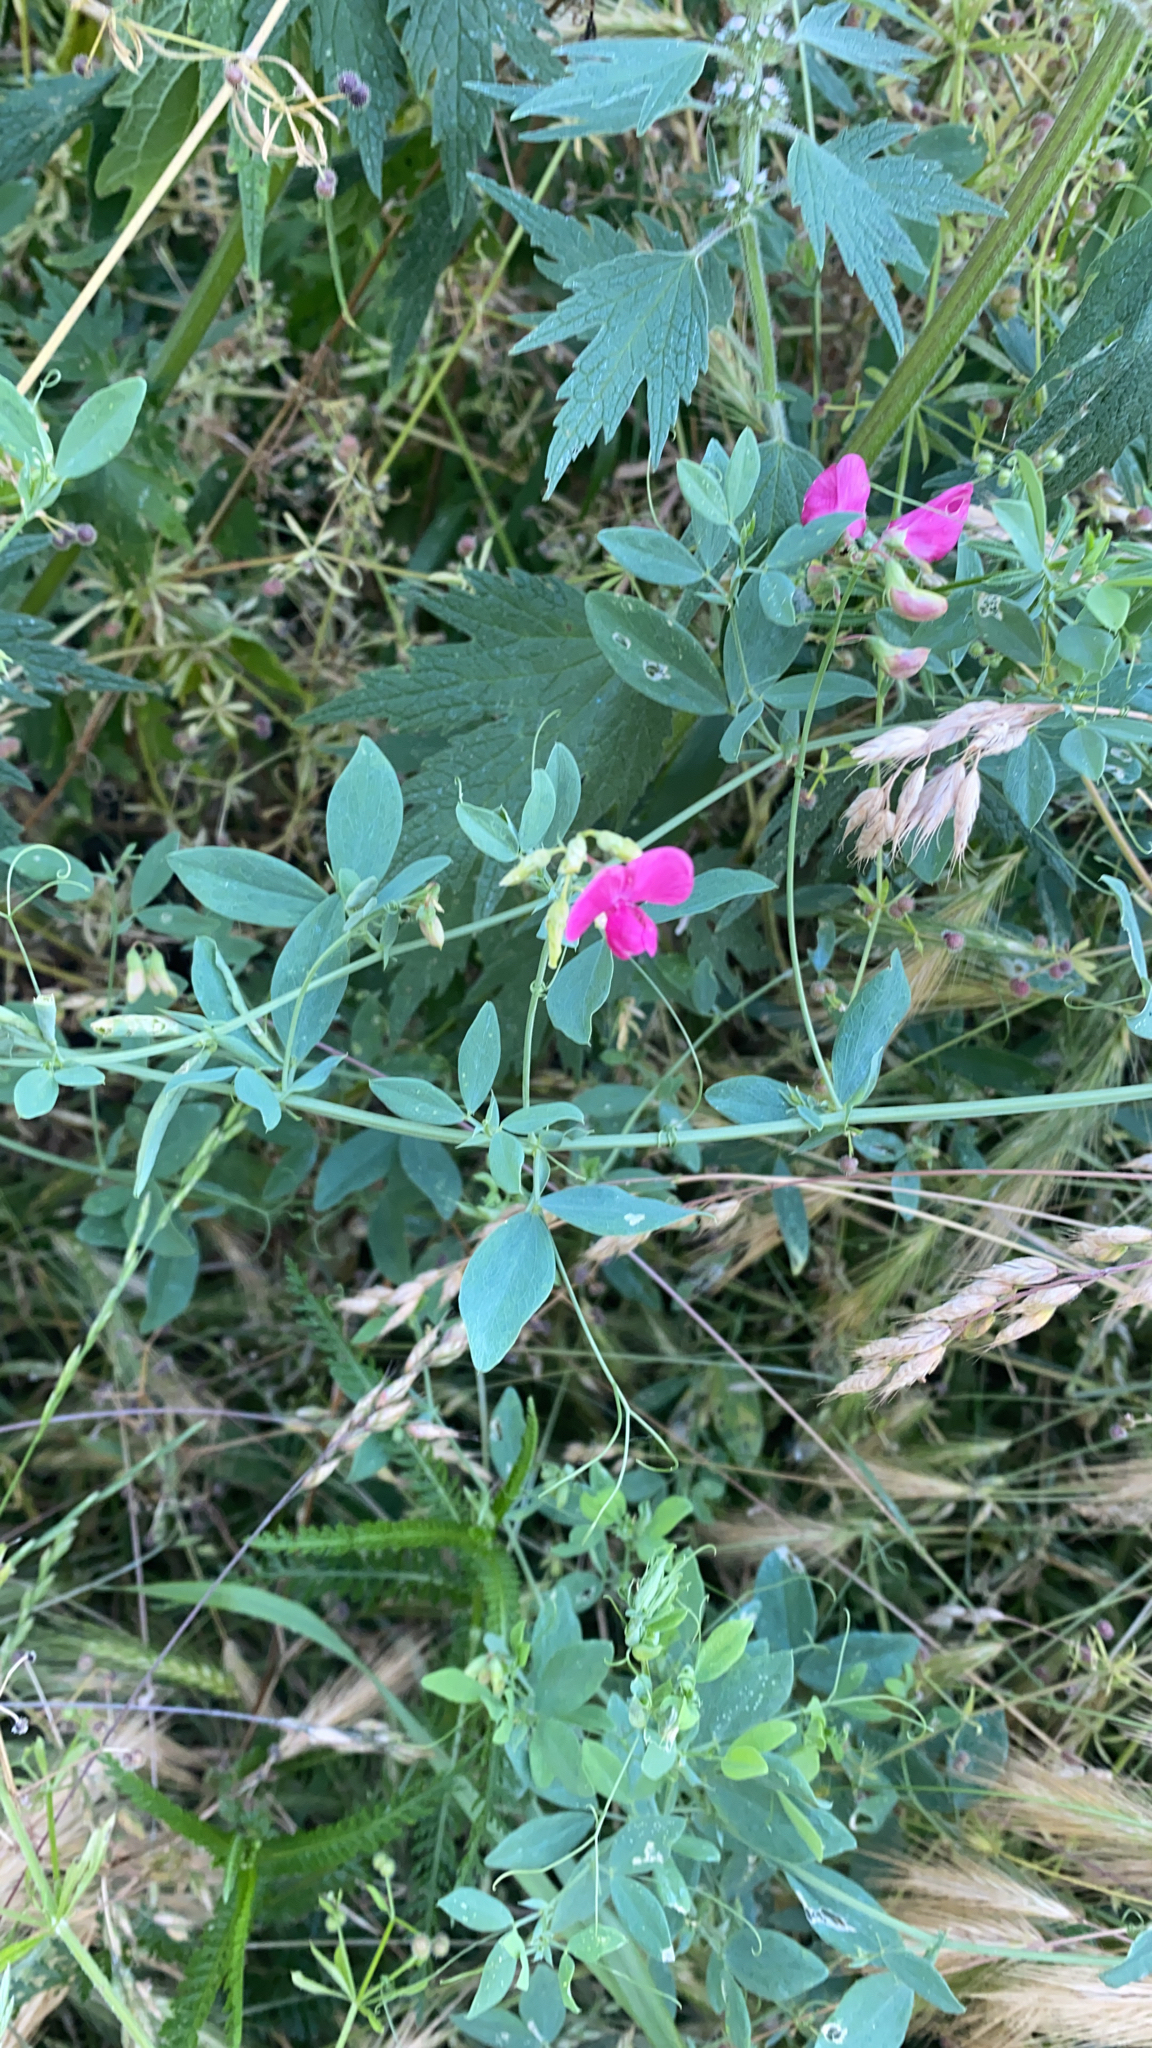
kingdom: Plantae
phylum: Tracheophyta
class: Magnoliopsida
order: Fabales
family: Fabaceae
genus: Lathyrus
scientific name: Lathyrus tuberosus
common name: Tuberous pea
